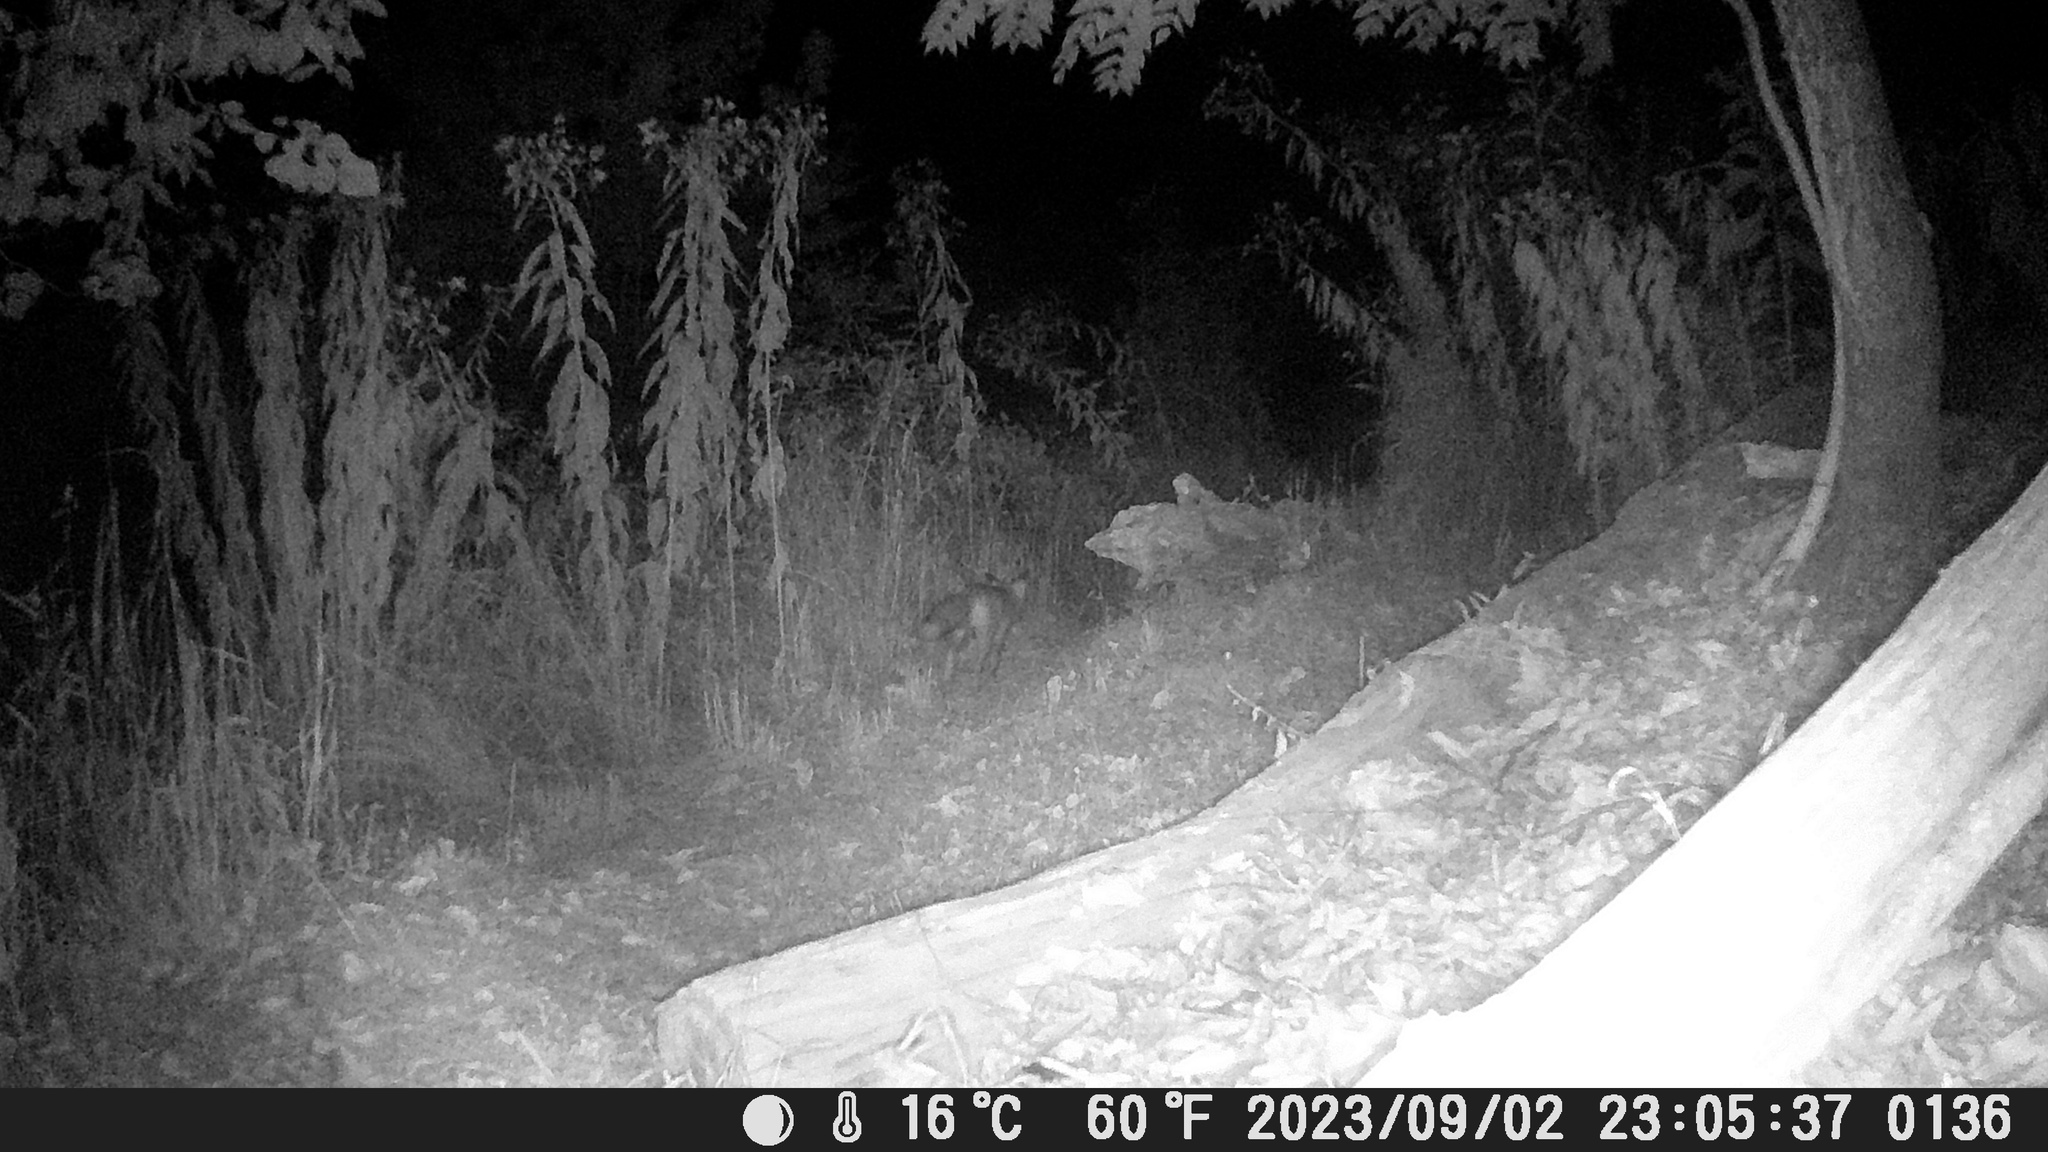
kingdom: Animalia
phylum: Chordata
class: Mammalia
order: Carnivora
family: Canidae
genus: Vulpes
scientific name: Vulpes vulpes
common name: Red fox
